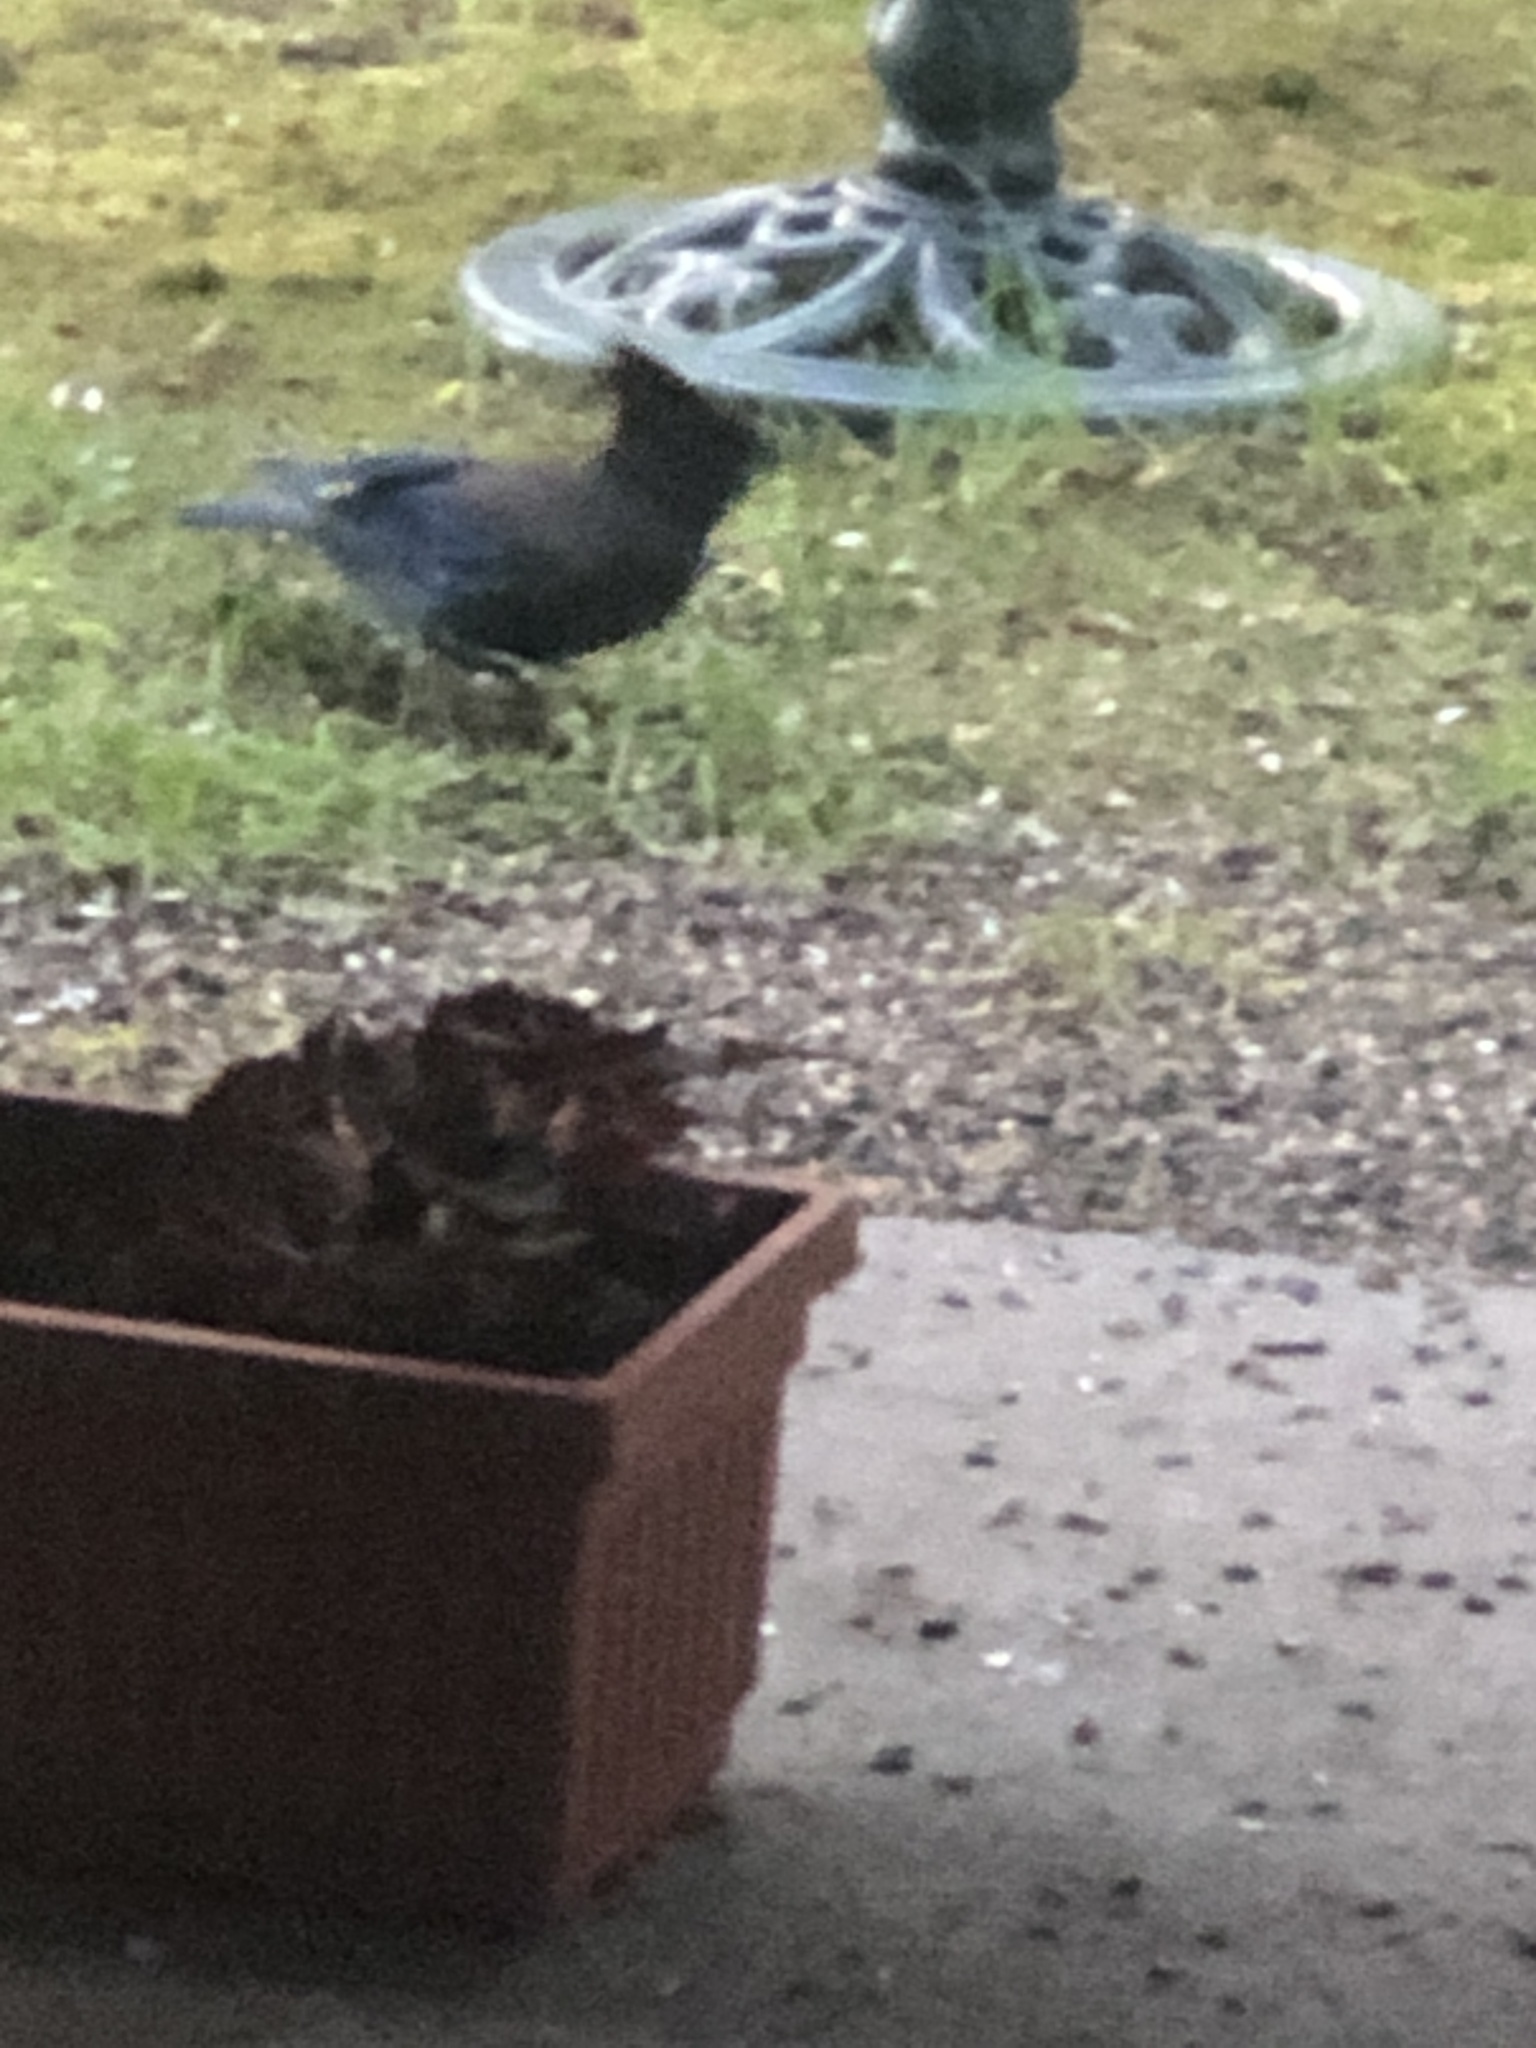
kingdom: Animalia
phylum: Chordata
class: Aves
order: Passeriformes
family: Corvidae
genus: Cyanocitta
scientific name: Cyanocitta stelleri
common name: Steller's jay
